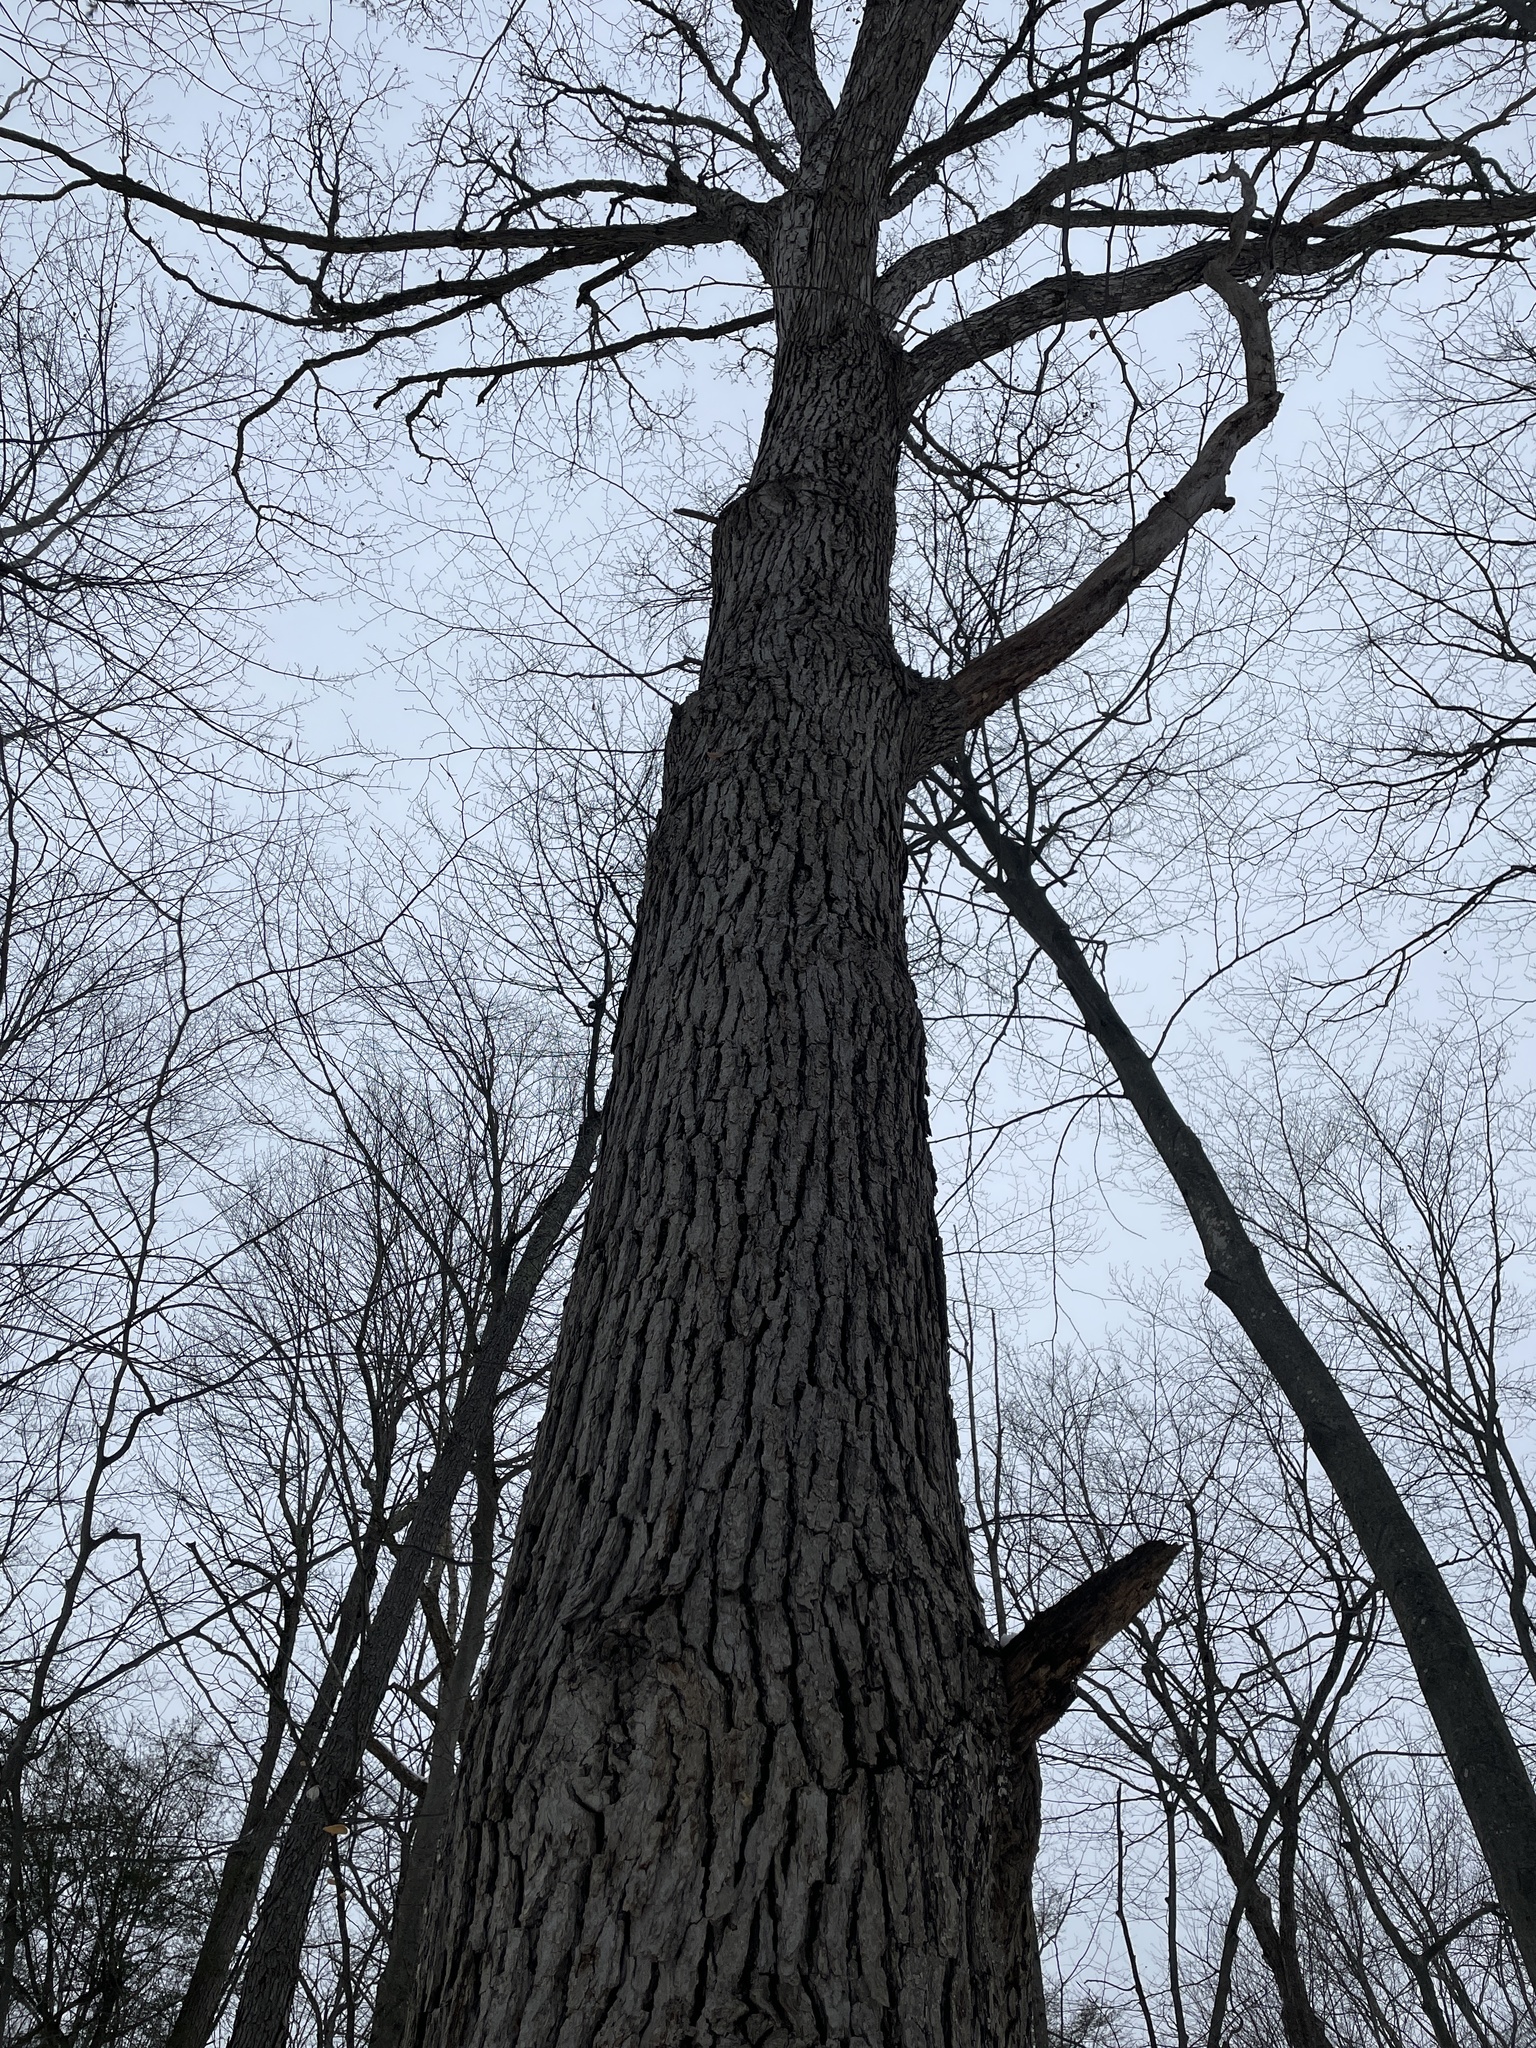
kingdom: Plantae
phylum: Tracheophyta
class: Magnoliopsida
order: Fagales
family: Fagaceae
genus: Quercus
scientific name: Quercus alba
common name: White oak
